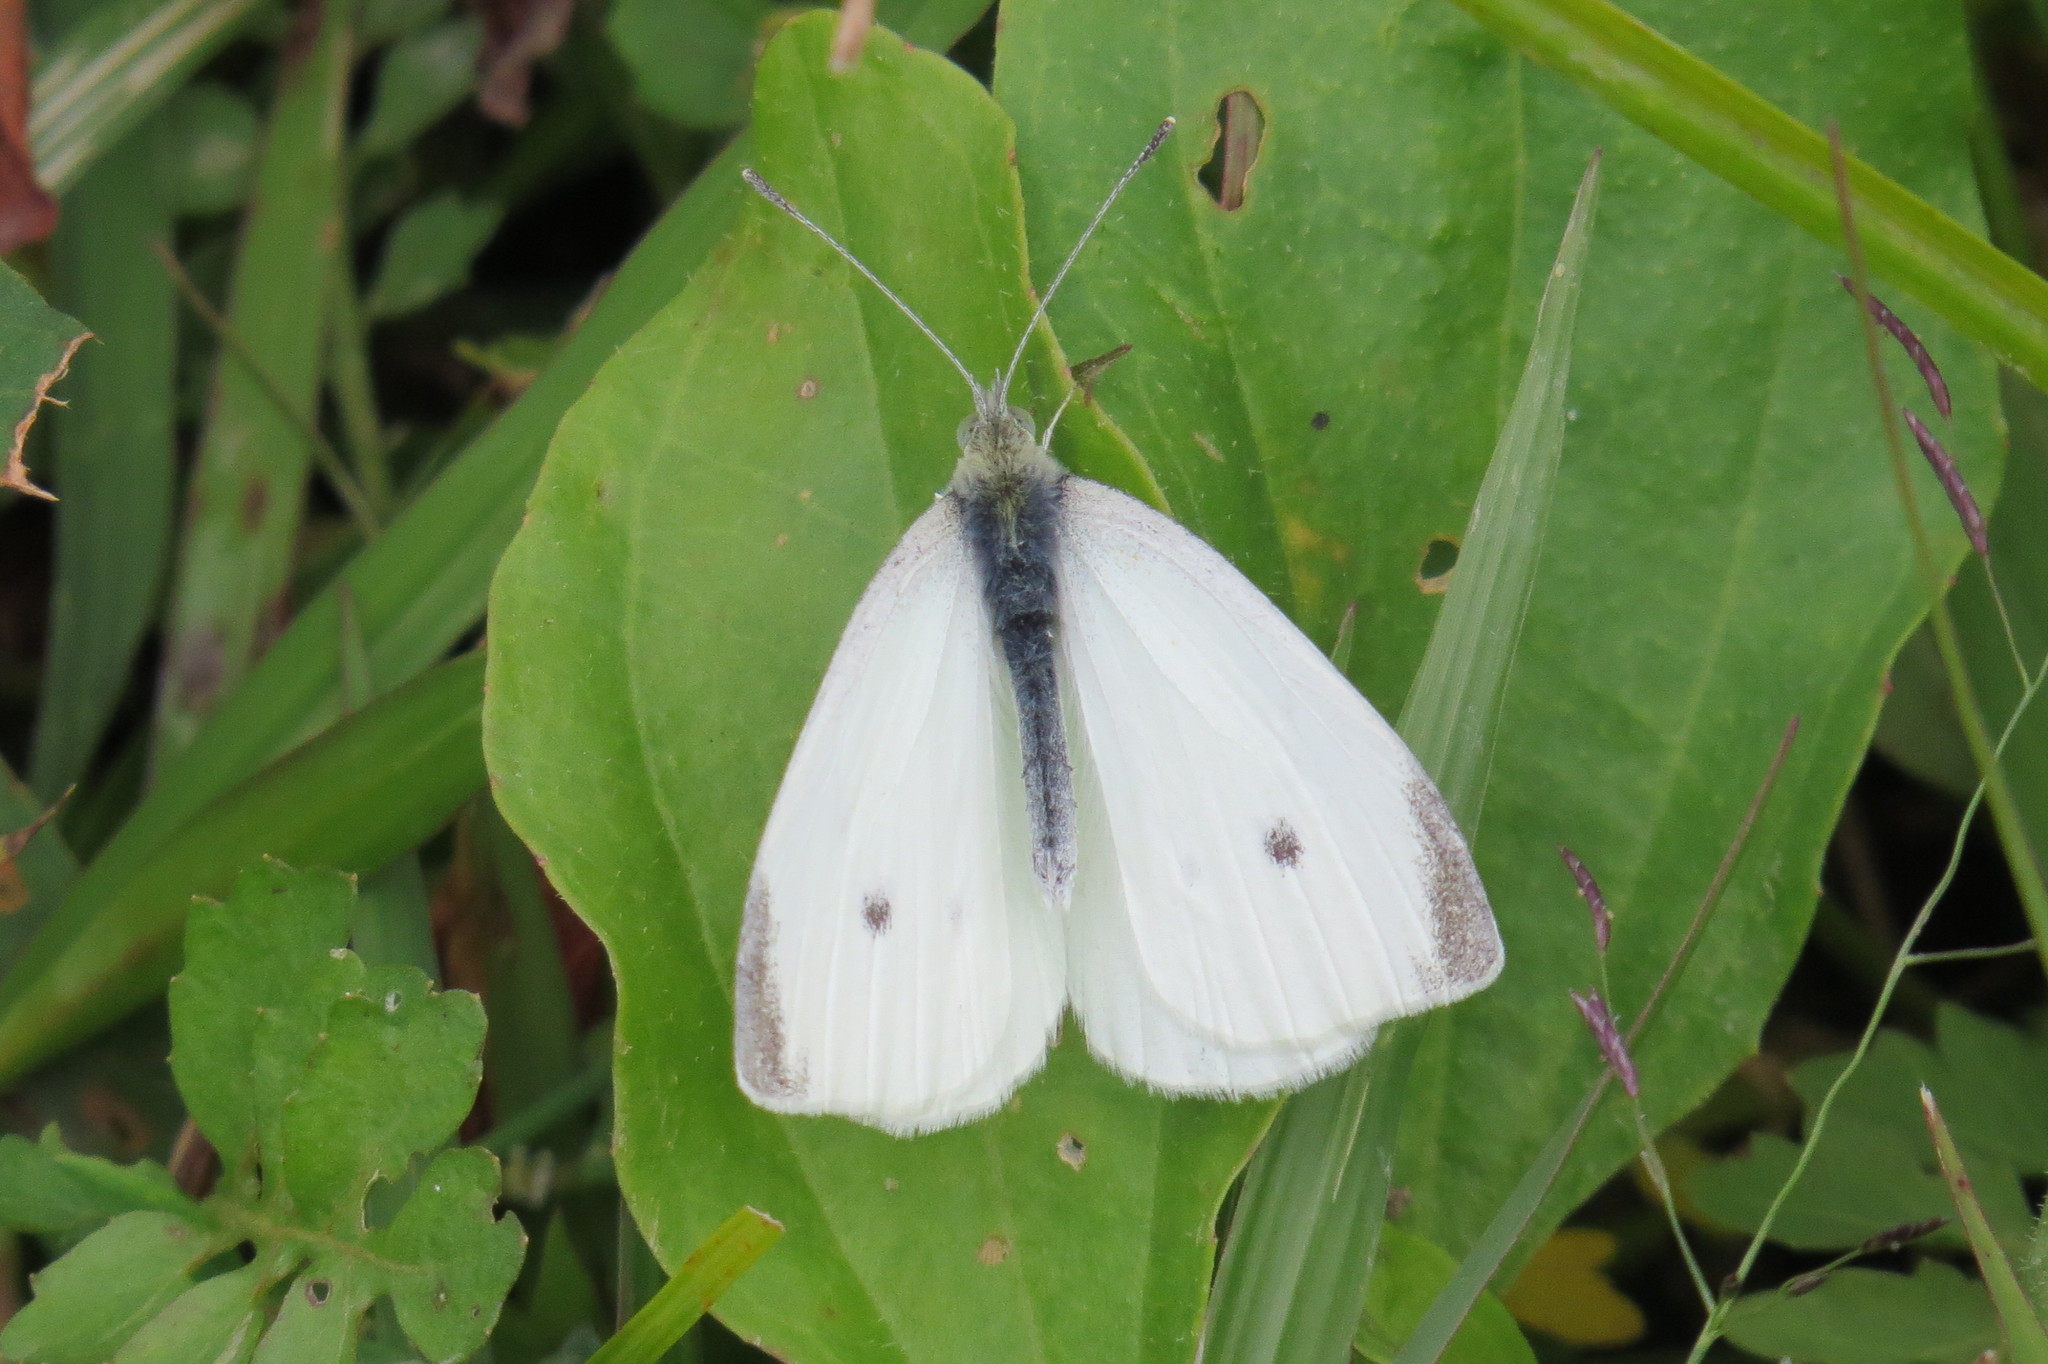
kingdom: Animalia
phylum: Arthropoda
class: Insecta
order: Lepidoptera
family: Pieridae
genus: Pieris
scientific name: Pieris rapae
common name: Small white
